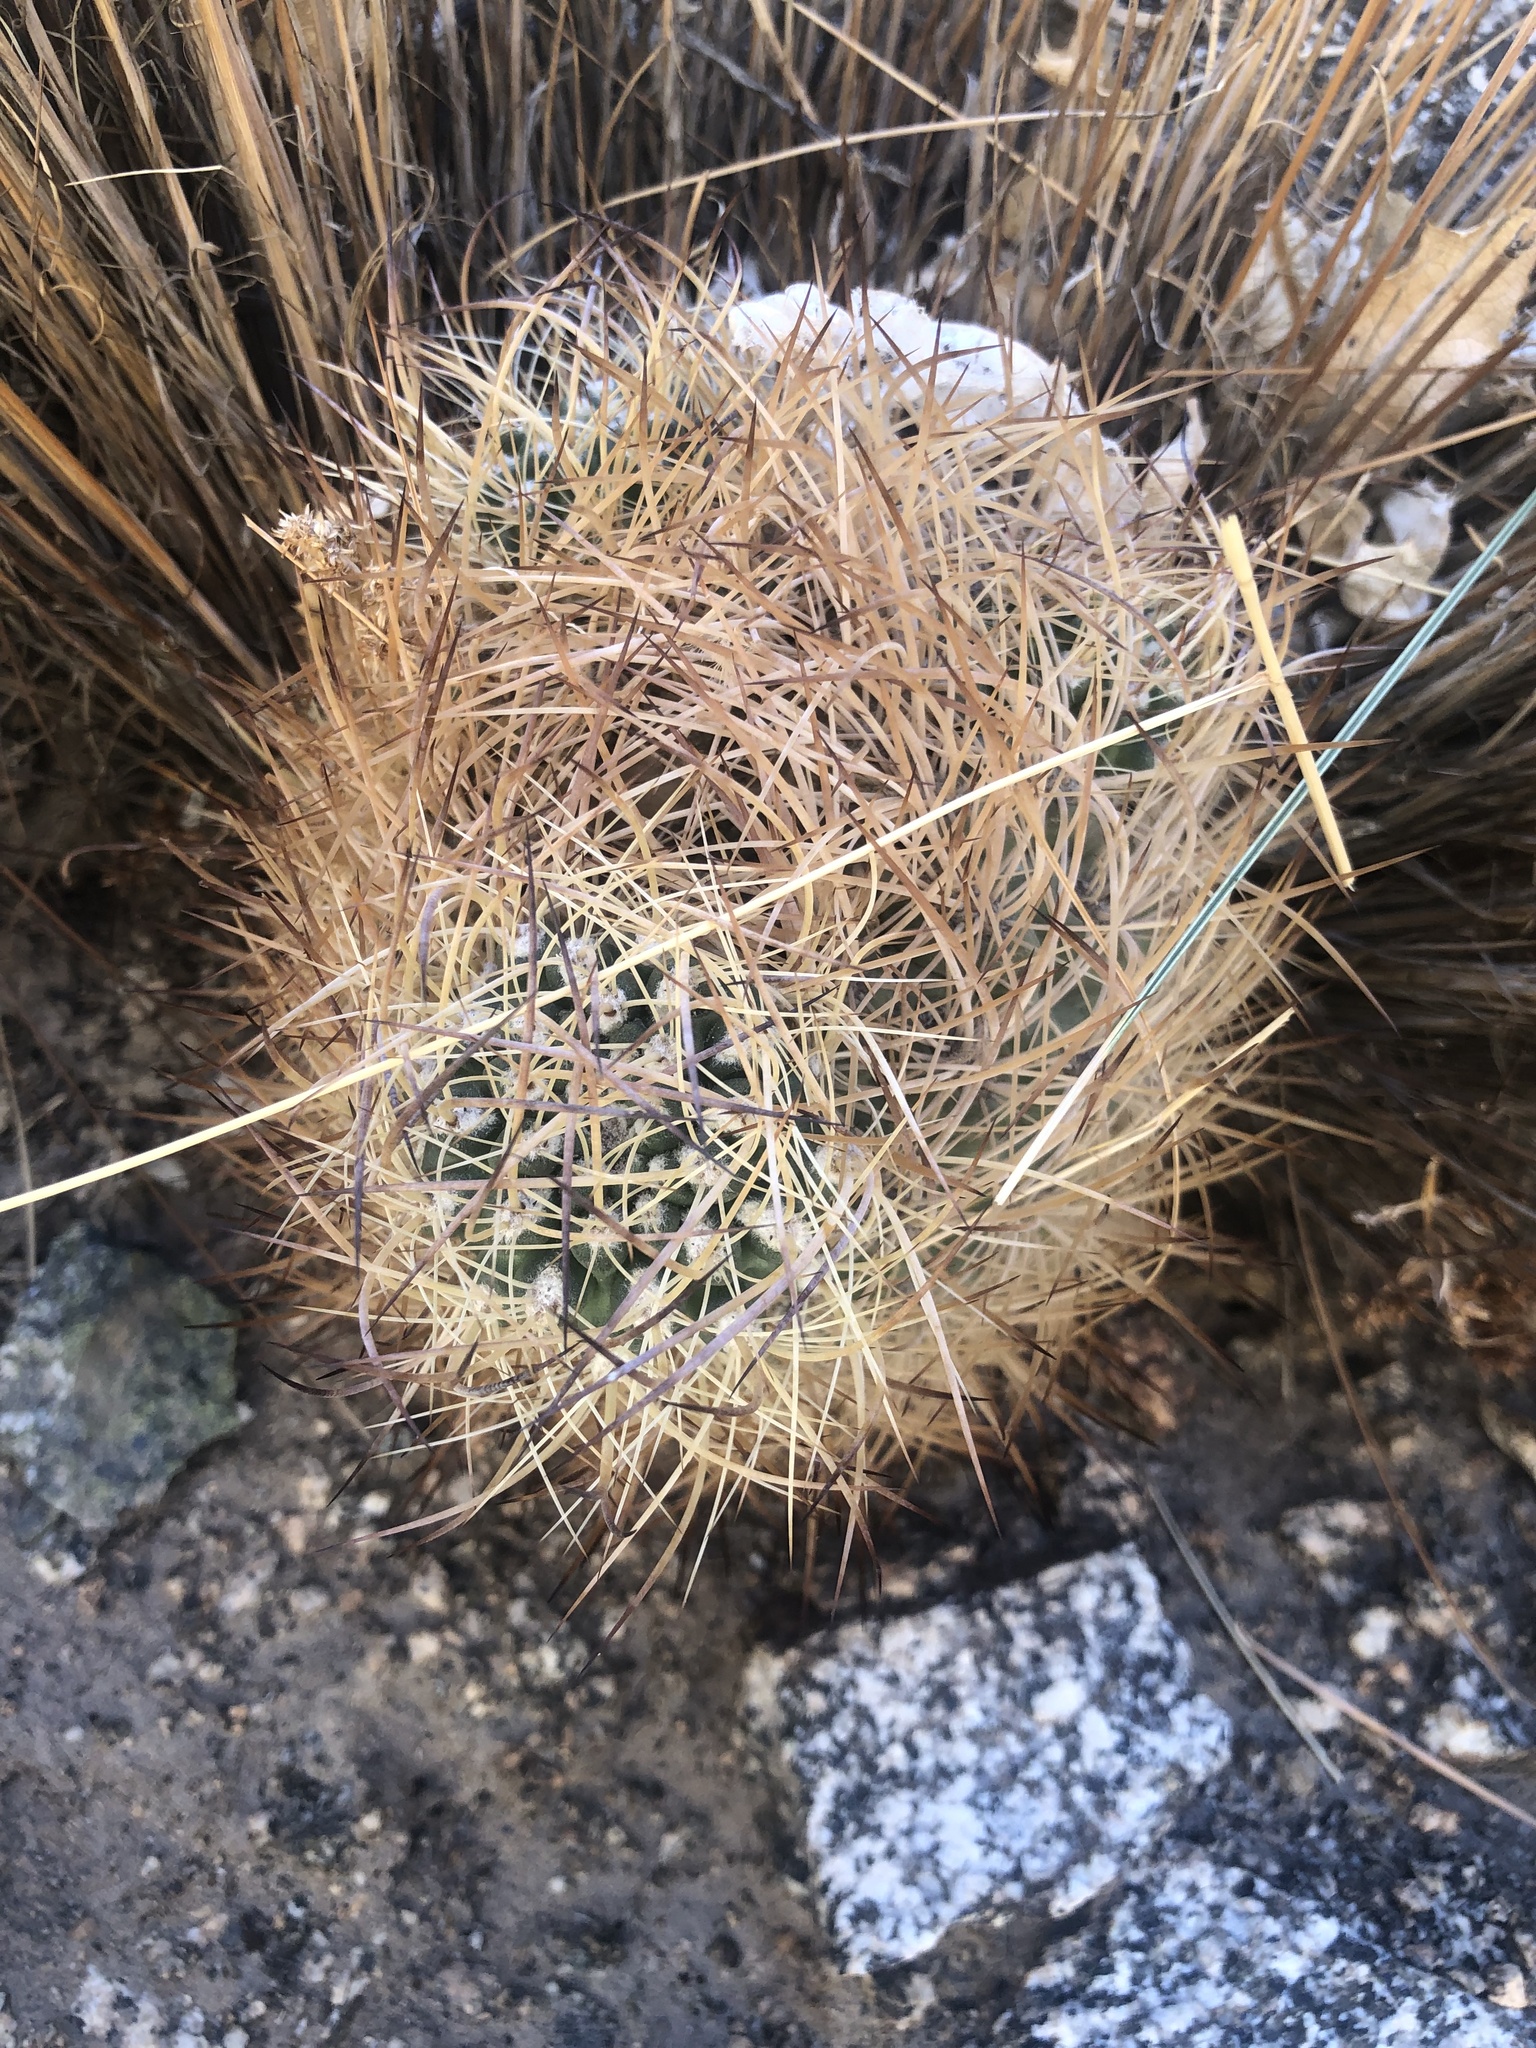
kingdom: Plantae
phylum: Tracheophyta
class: Magnoliopsida
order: Caryophyllales
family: Cactaceae
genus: Eriosyce
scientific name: Eriosyce eriosyzoides
